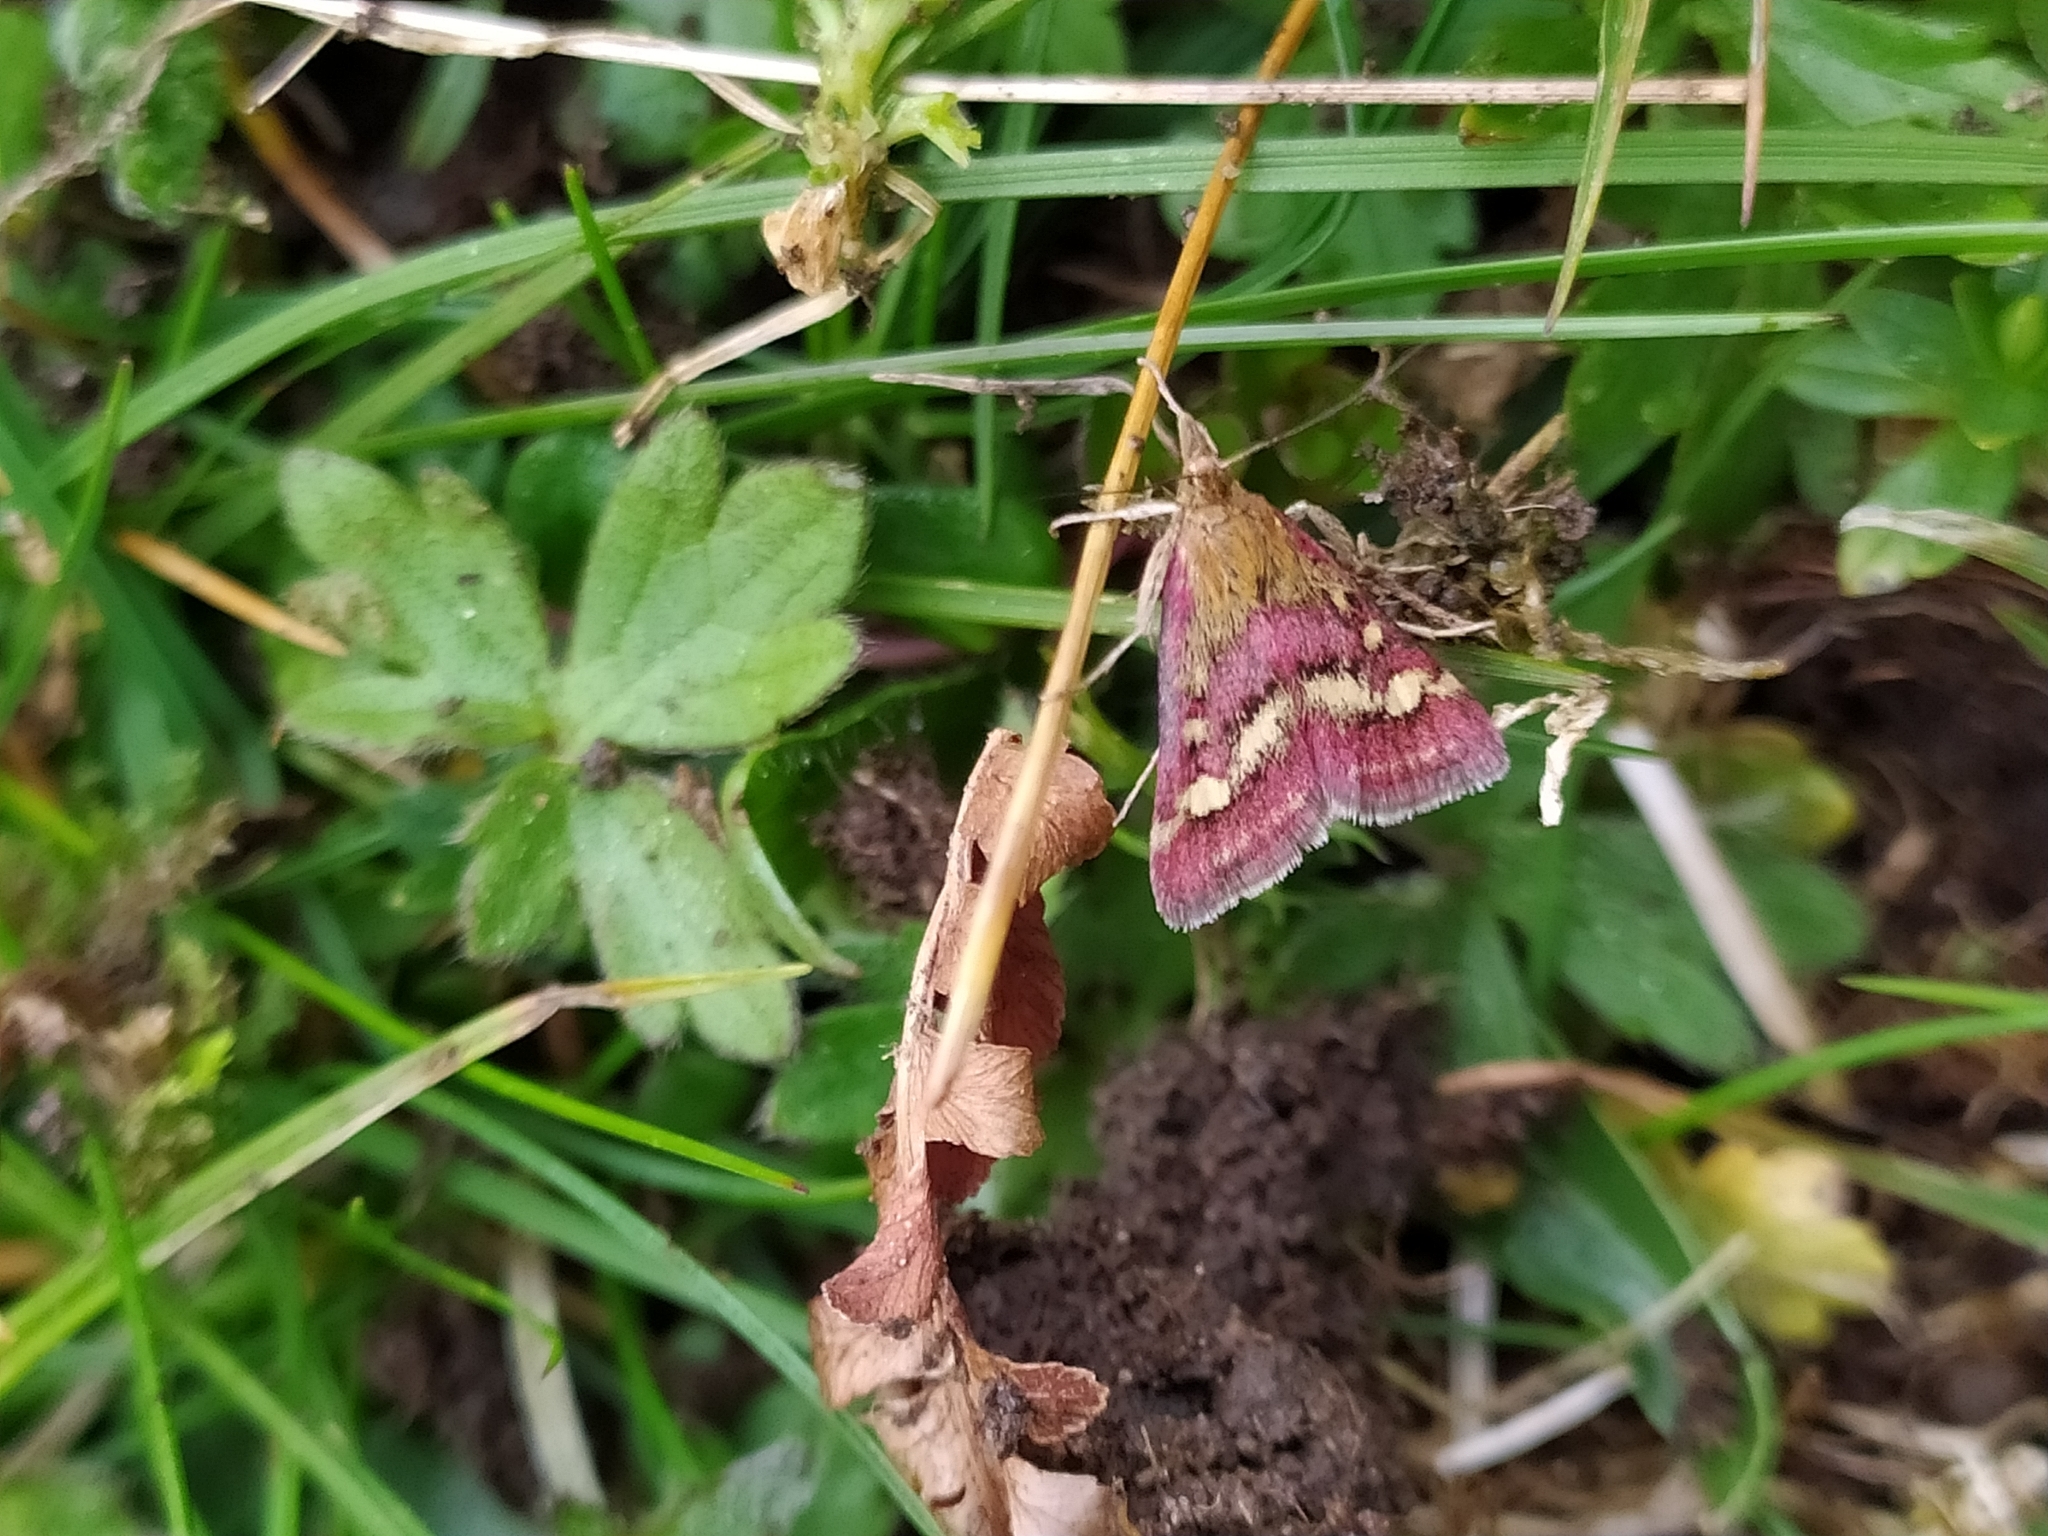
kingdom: Animalia
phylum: Arthropoda
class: Insecta
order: Lepidoptera
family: Crambidae
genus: Pyrausta
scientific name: Pyrausta ostrinalis
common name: Scarce purple & gold
